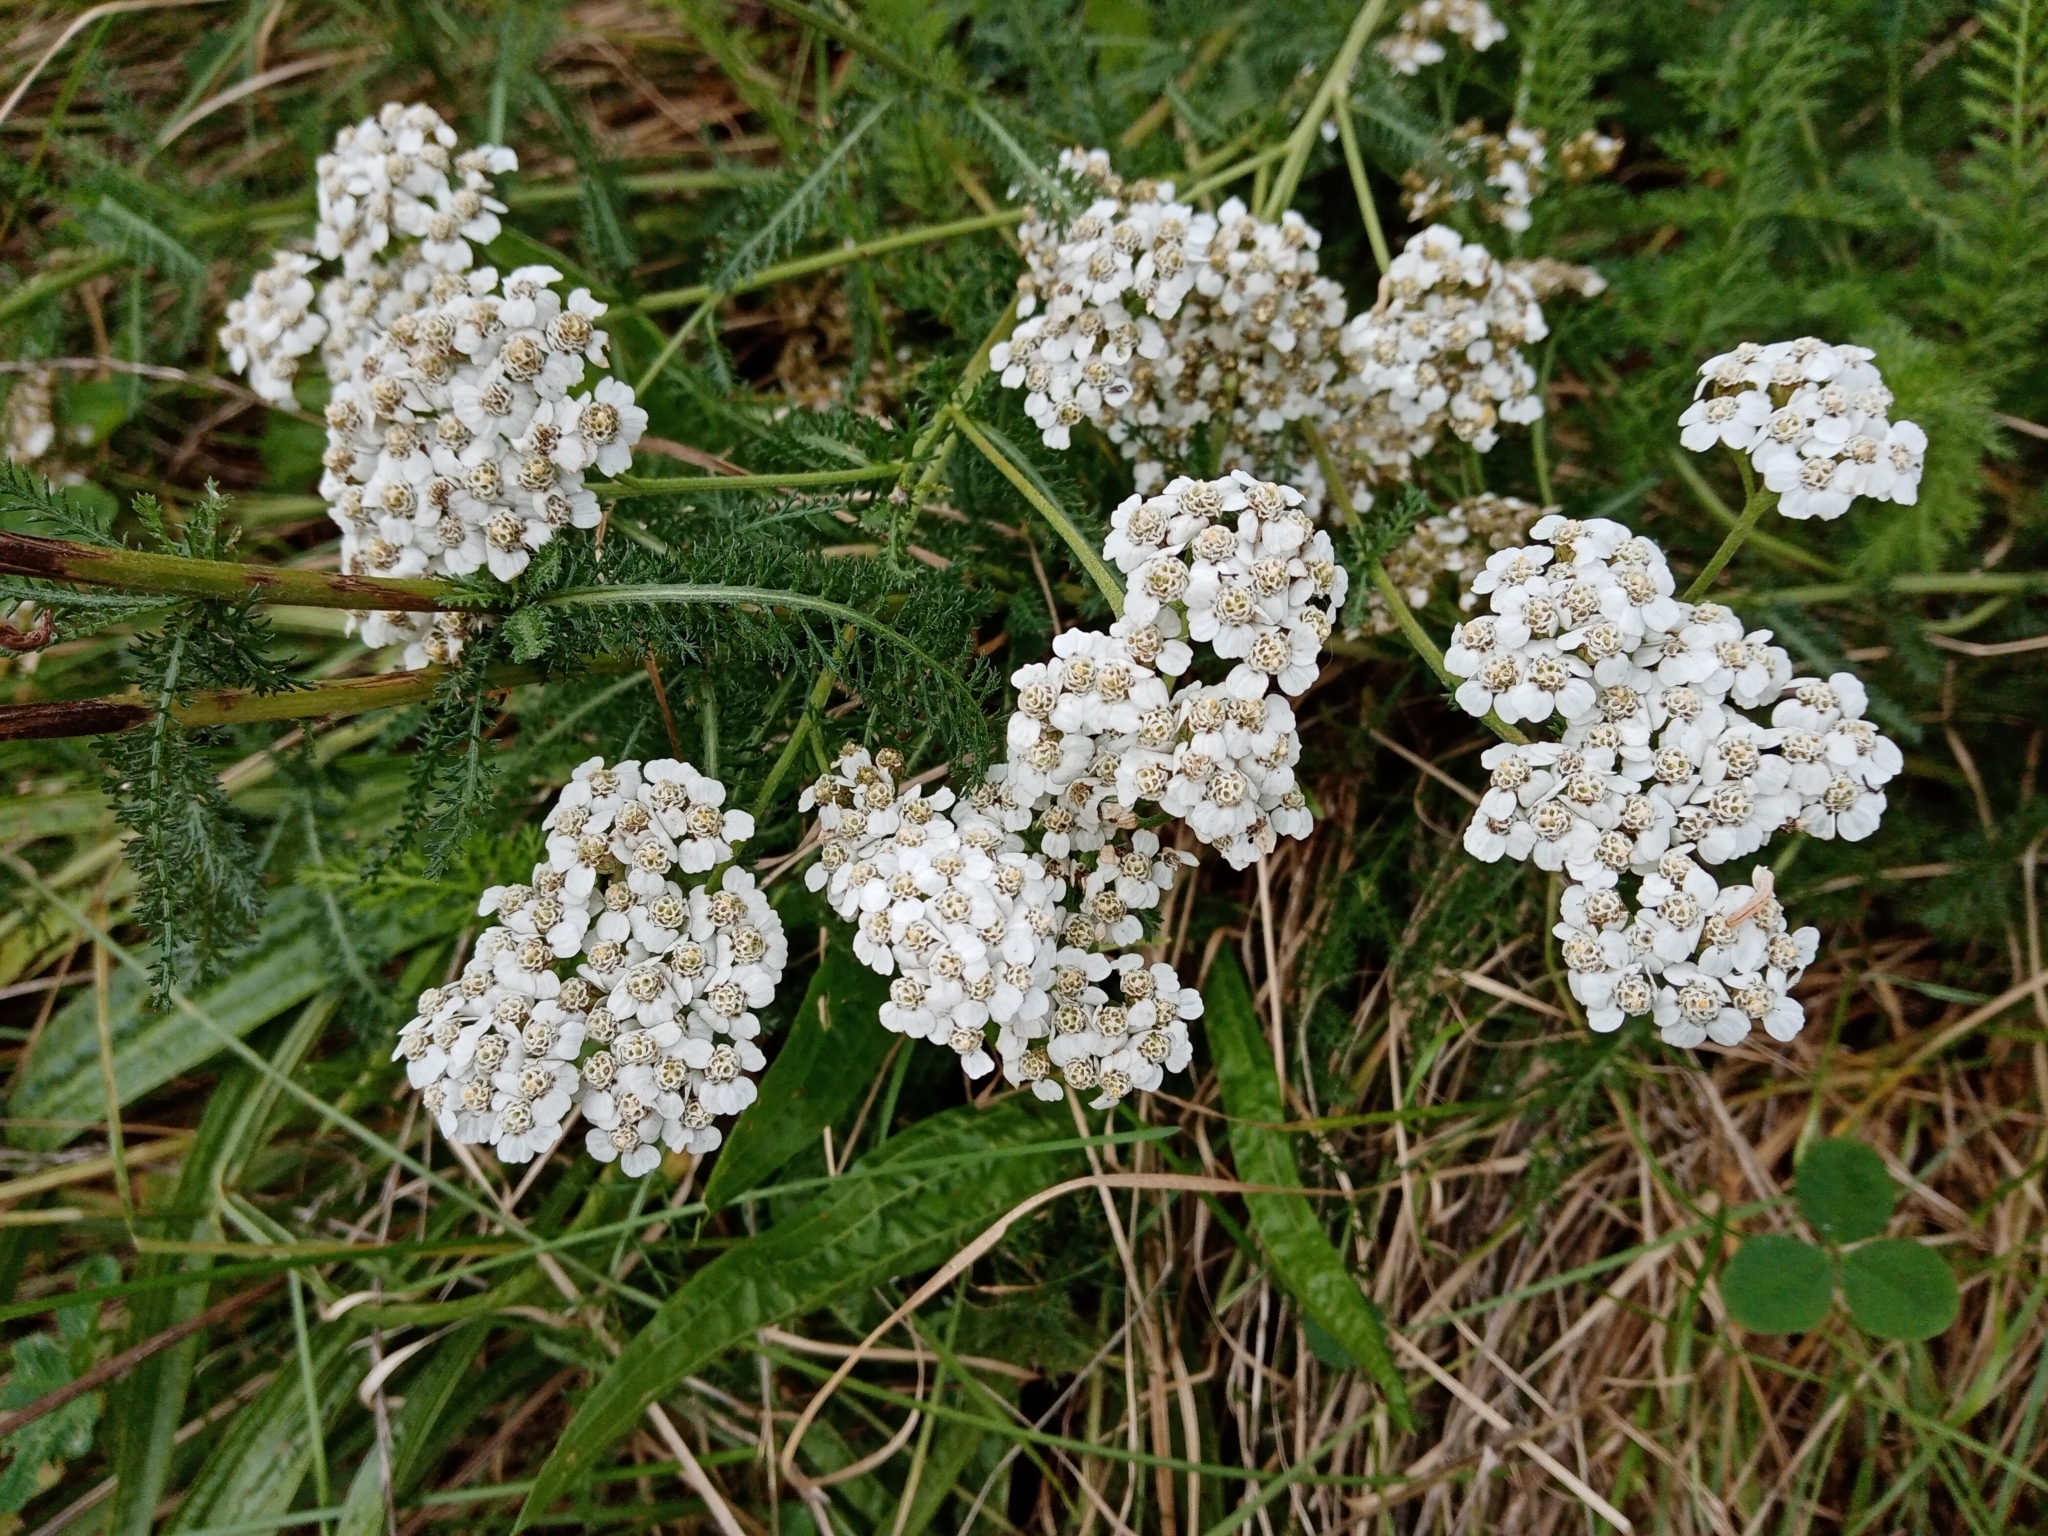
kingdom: Plantae
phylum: Tracheophyta
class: Magnoliopsida
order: Asterales
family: Asteraceae
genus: Achillea
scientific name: Achillea millefolium
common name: Yarrow
